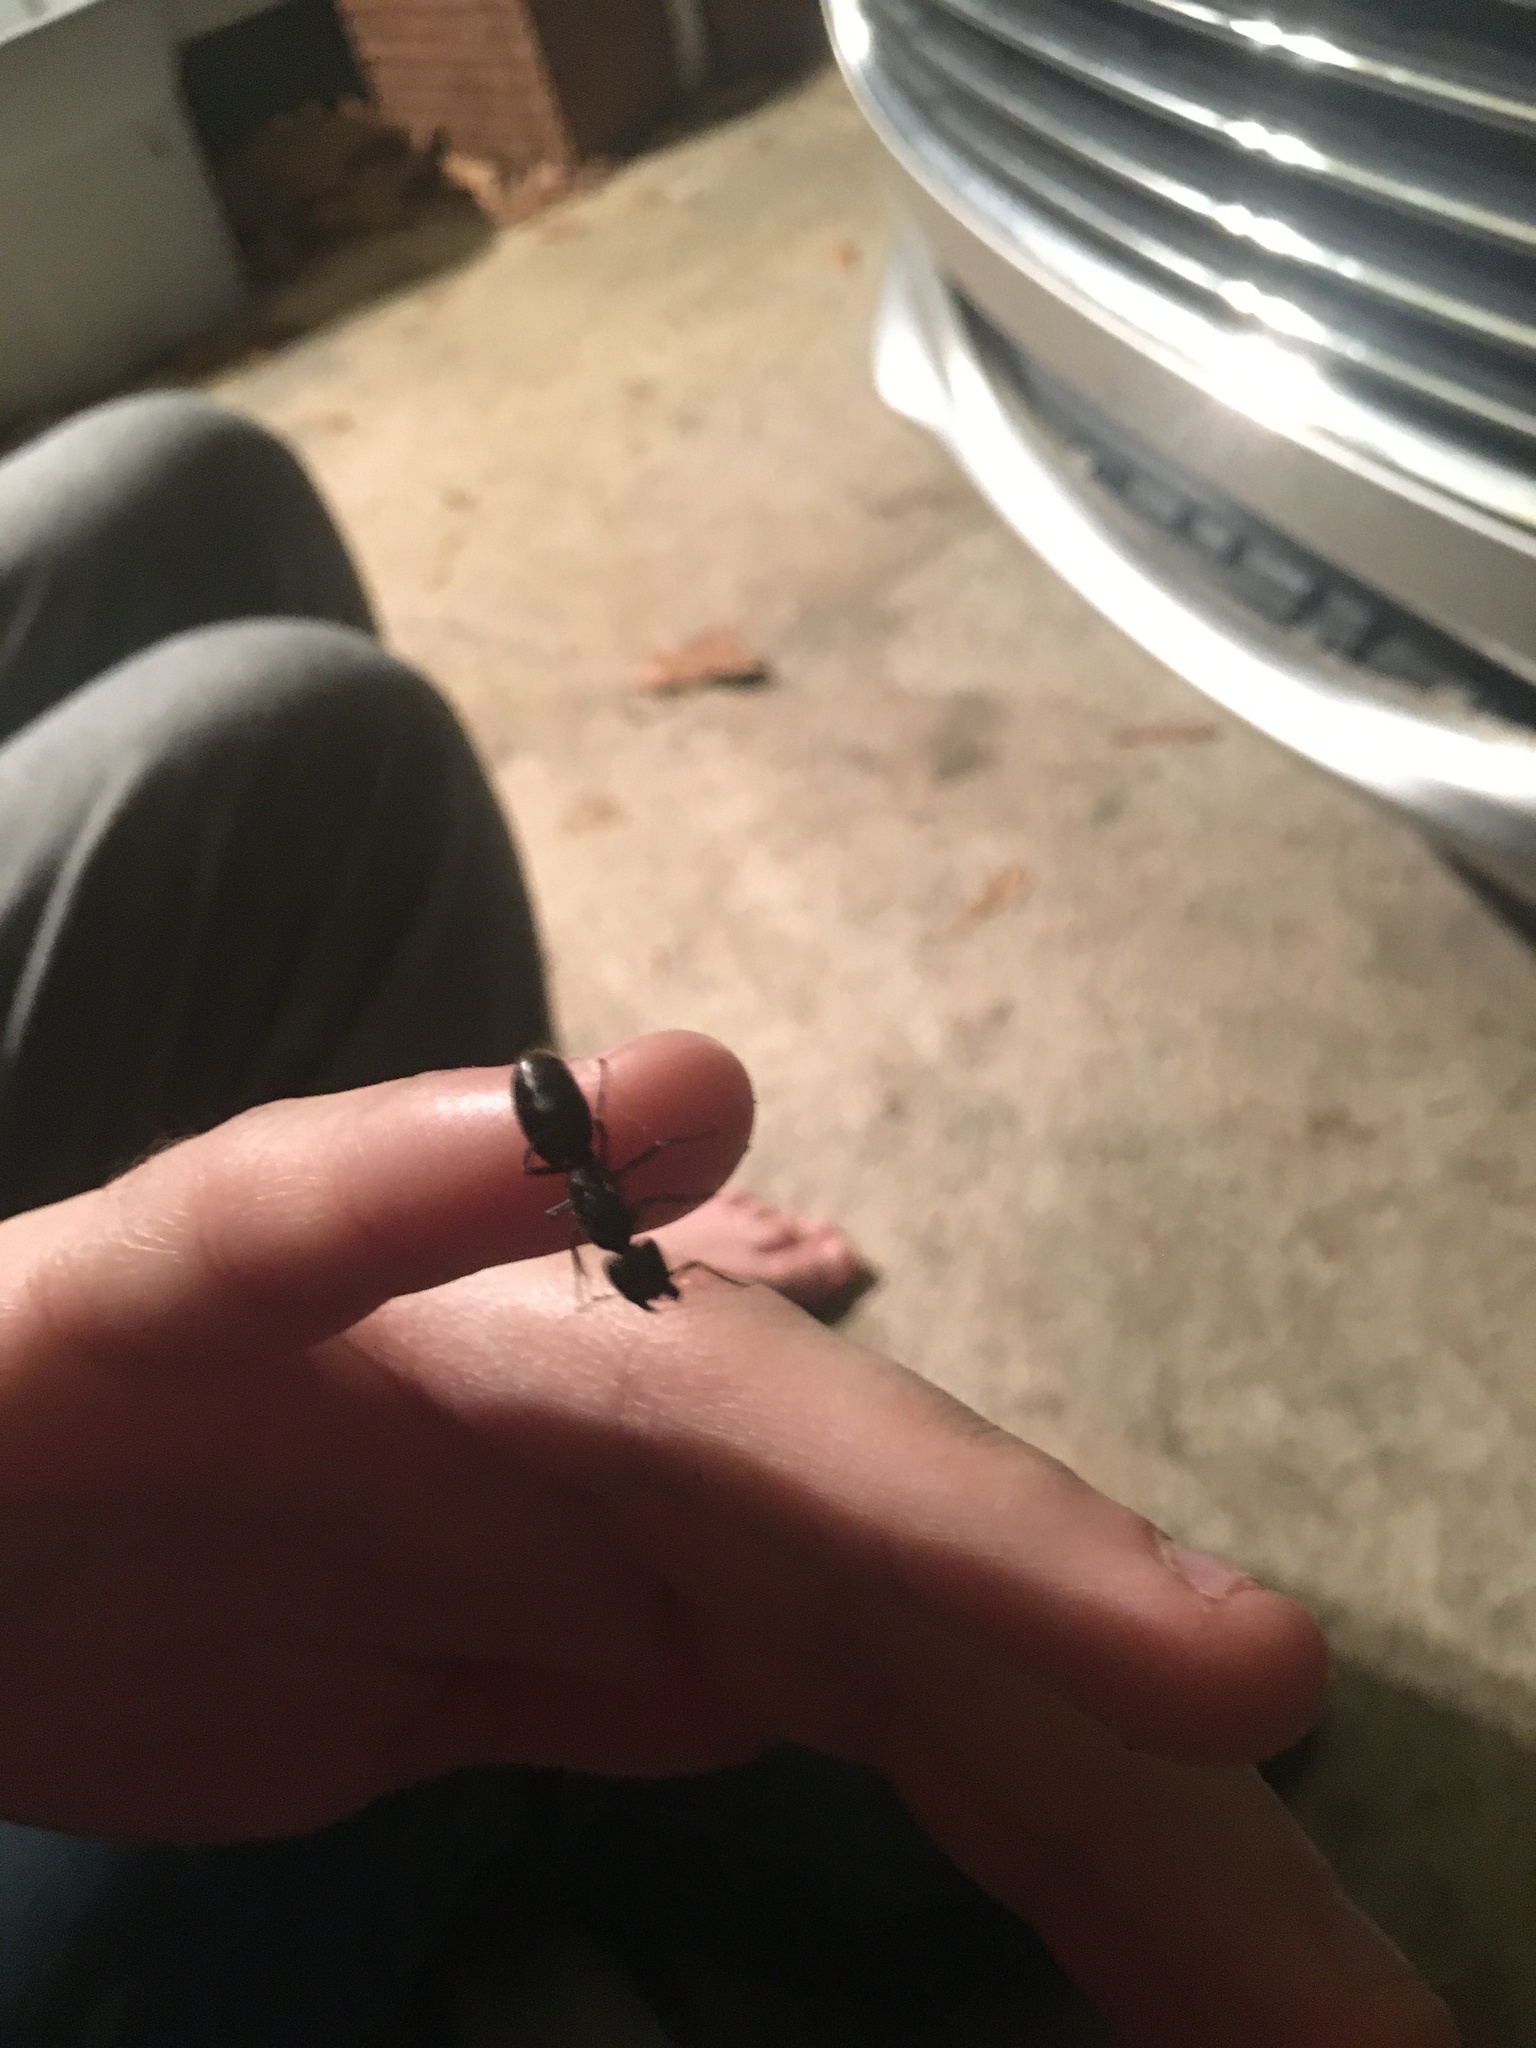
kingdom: Animalia
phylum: Arthropoda
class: Insecta
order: Hymenoptera
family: Formicidae
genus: Camponotus
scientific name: Camponotus pennsylvanicus
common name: Black carpenter ant
